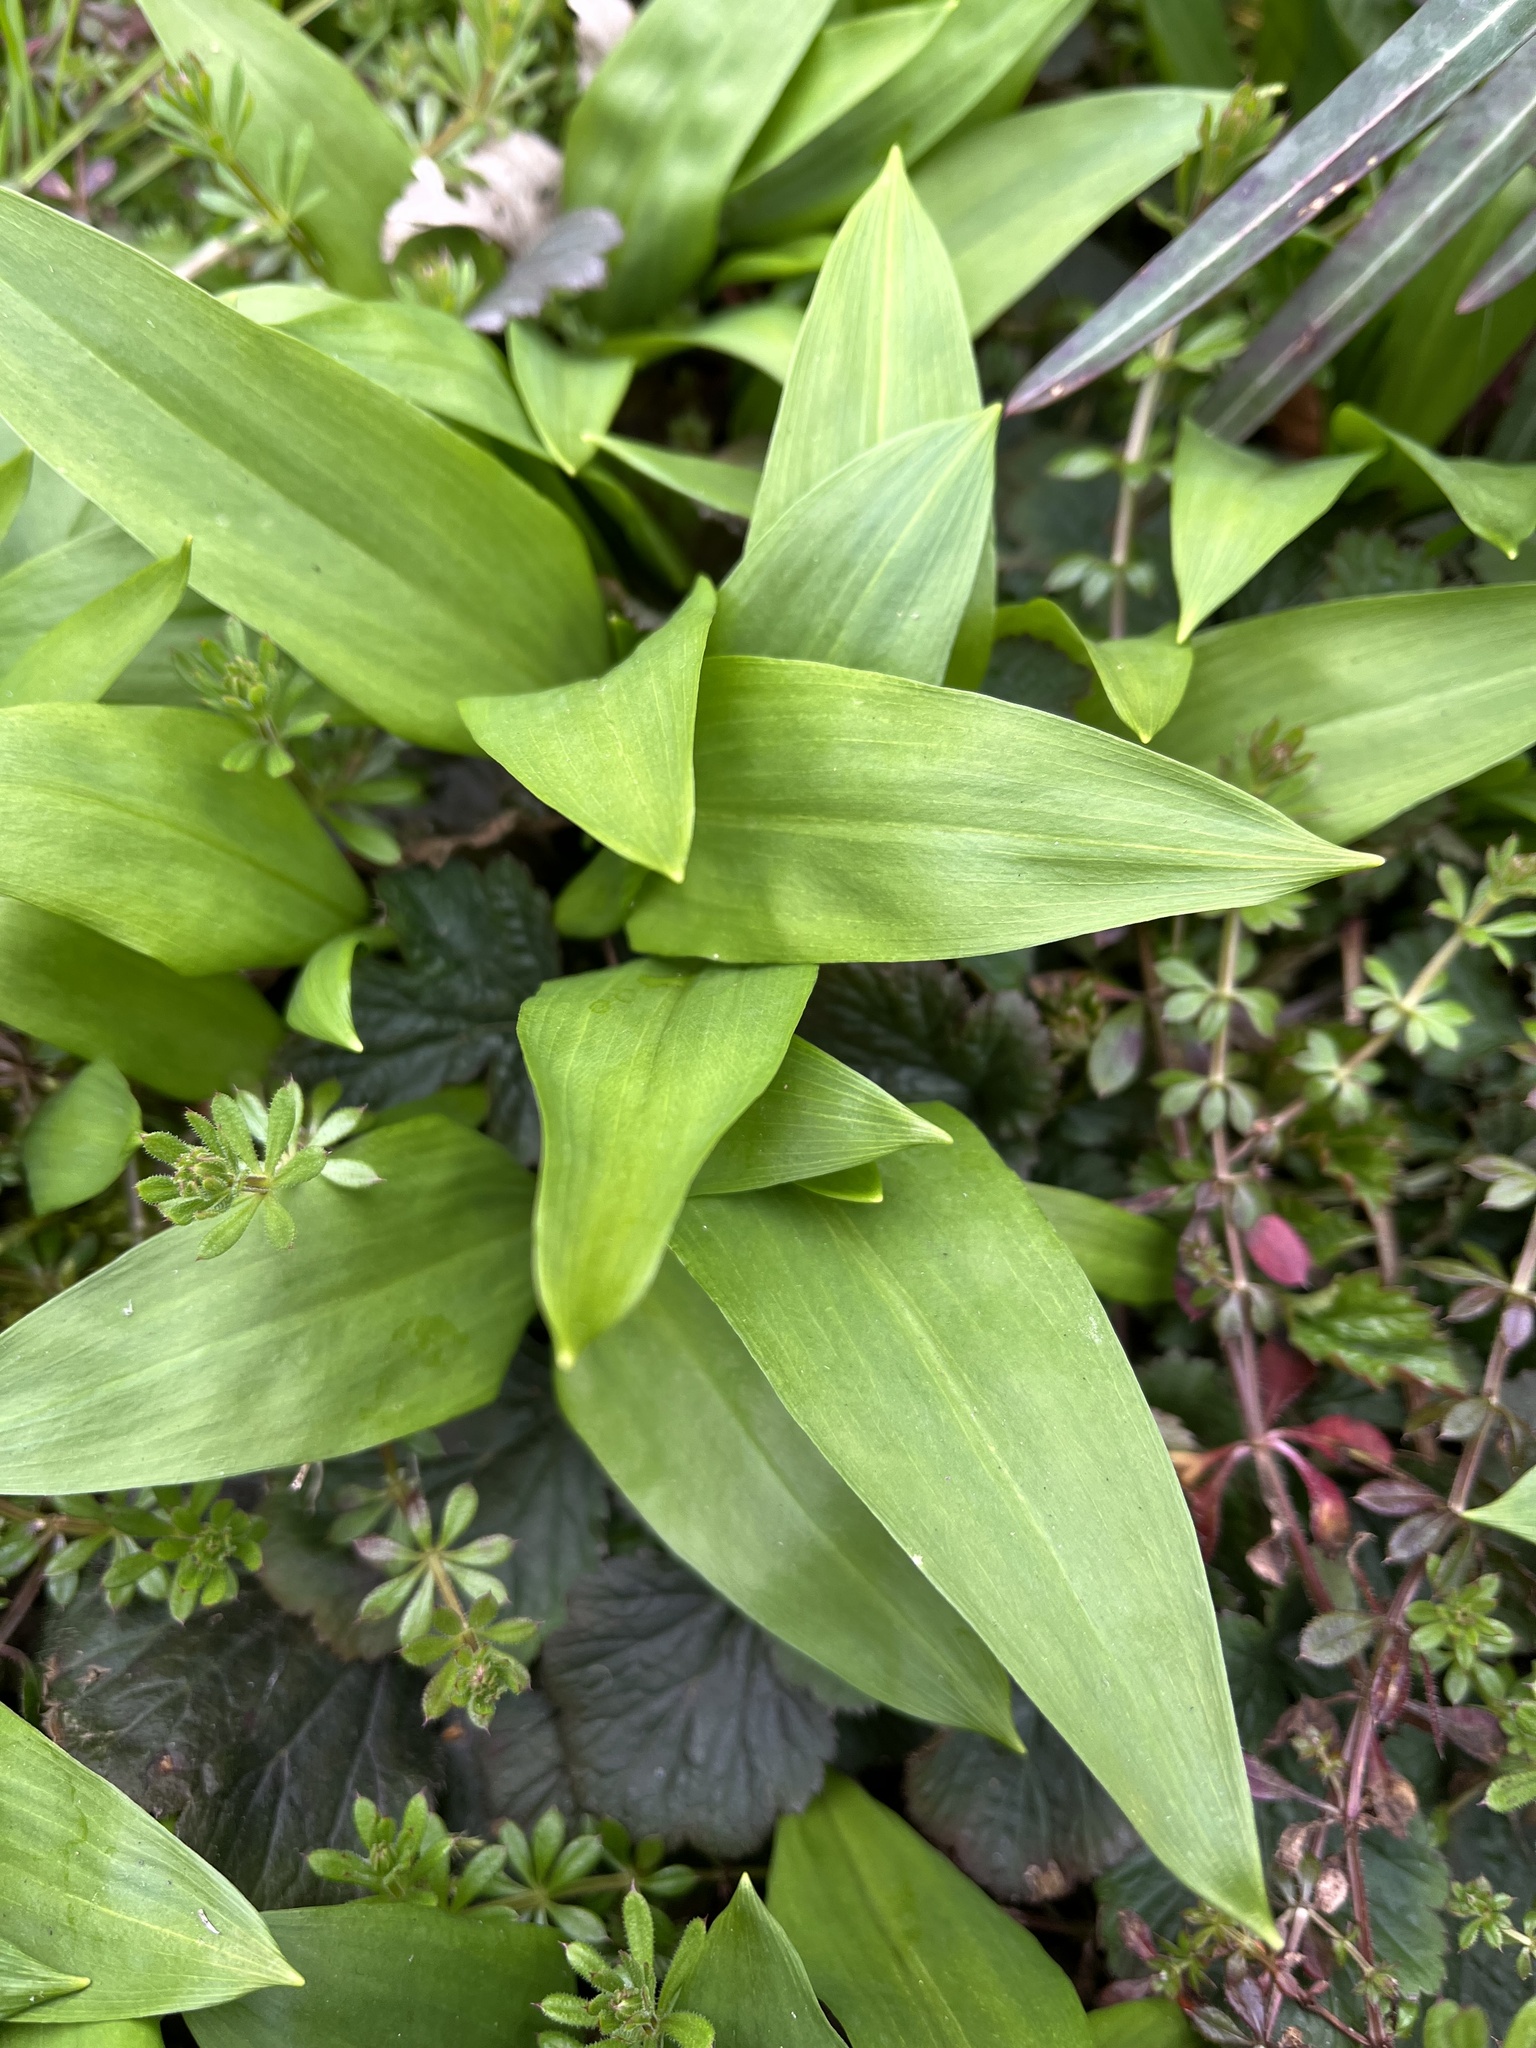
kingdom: Plantae
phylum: Tracheophyta
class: Liliopsida
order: Asparagales
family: Amaryllidaceae
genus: Allium
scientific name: Allium ursinum
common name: Ramsons
